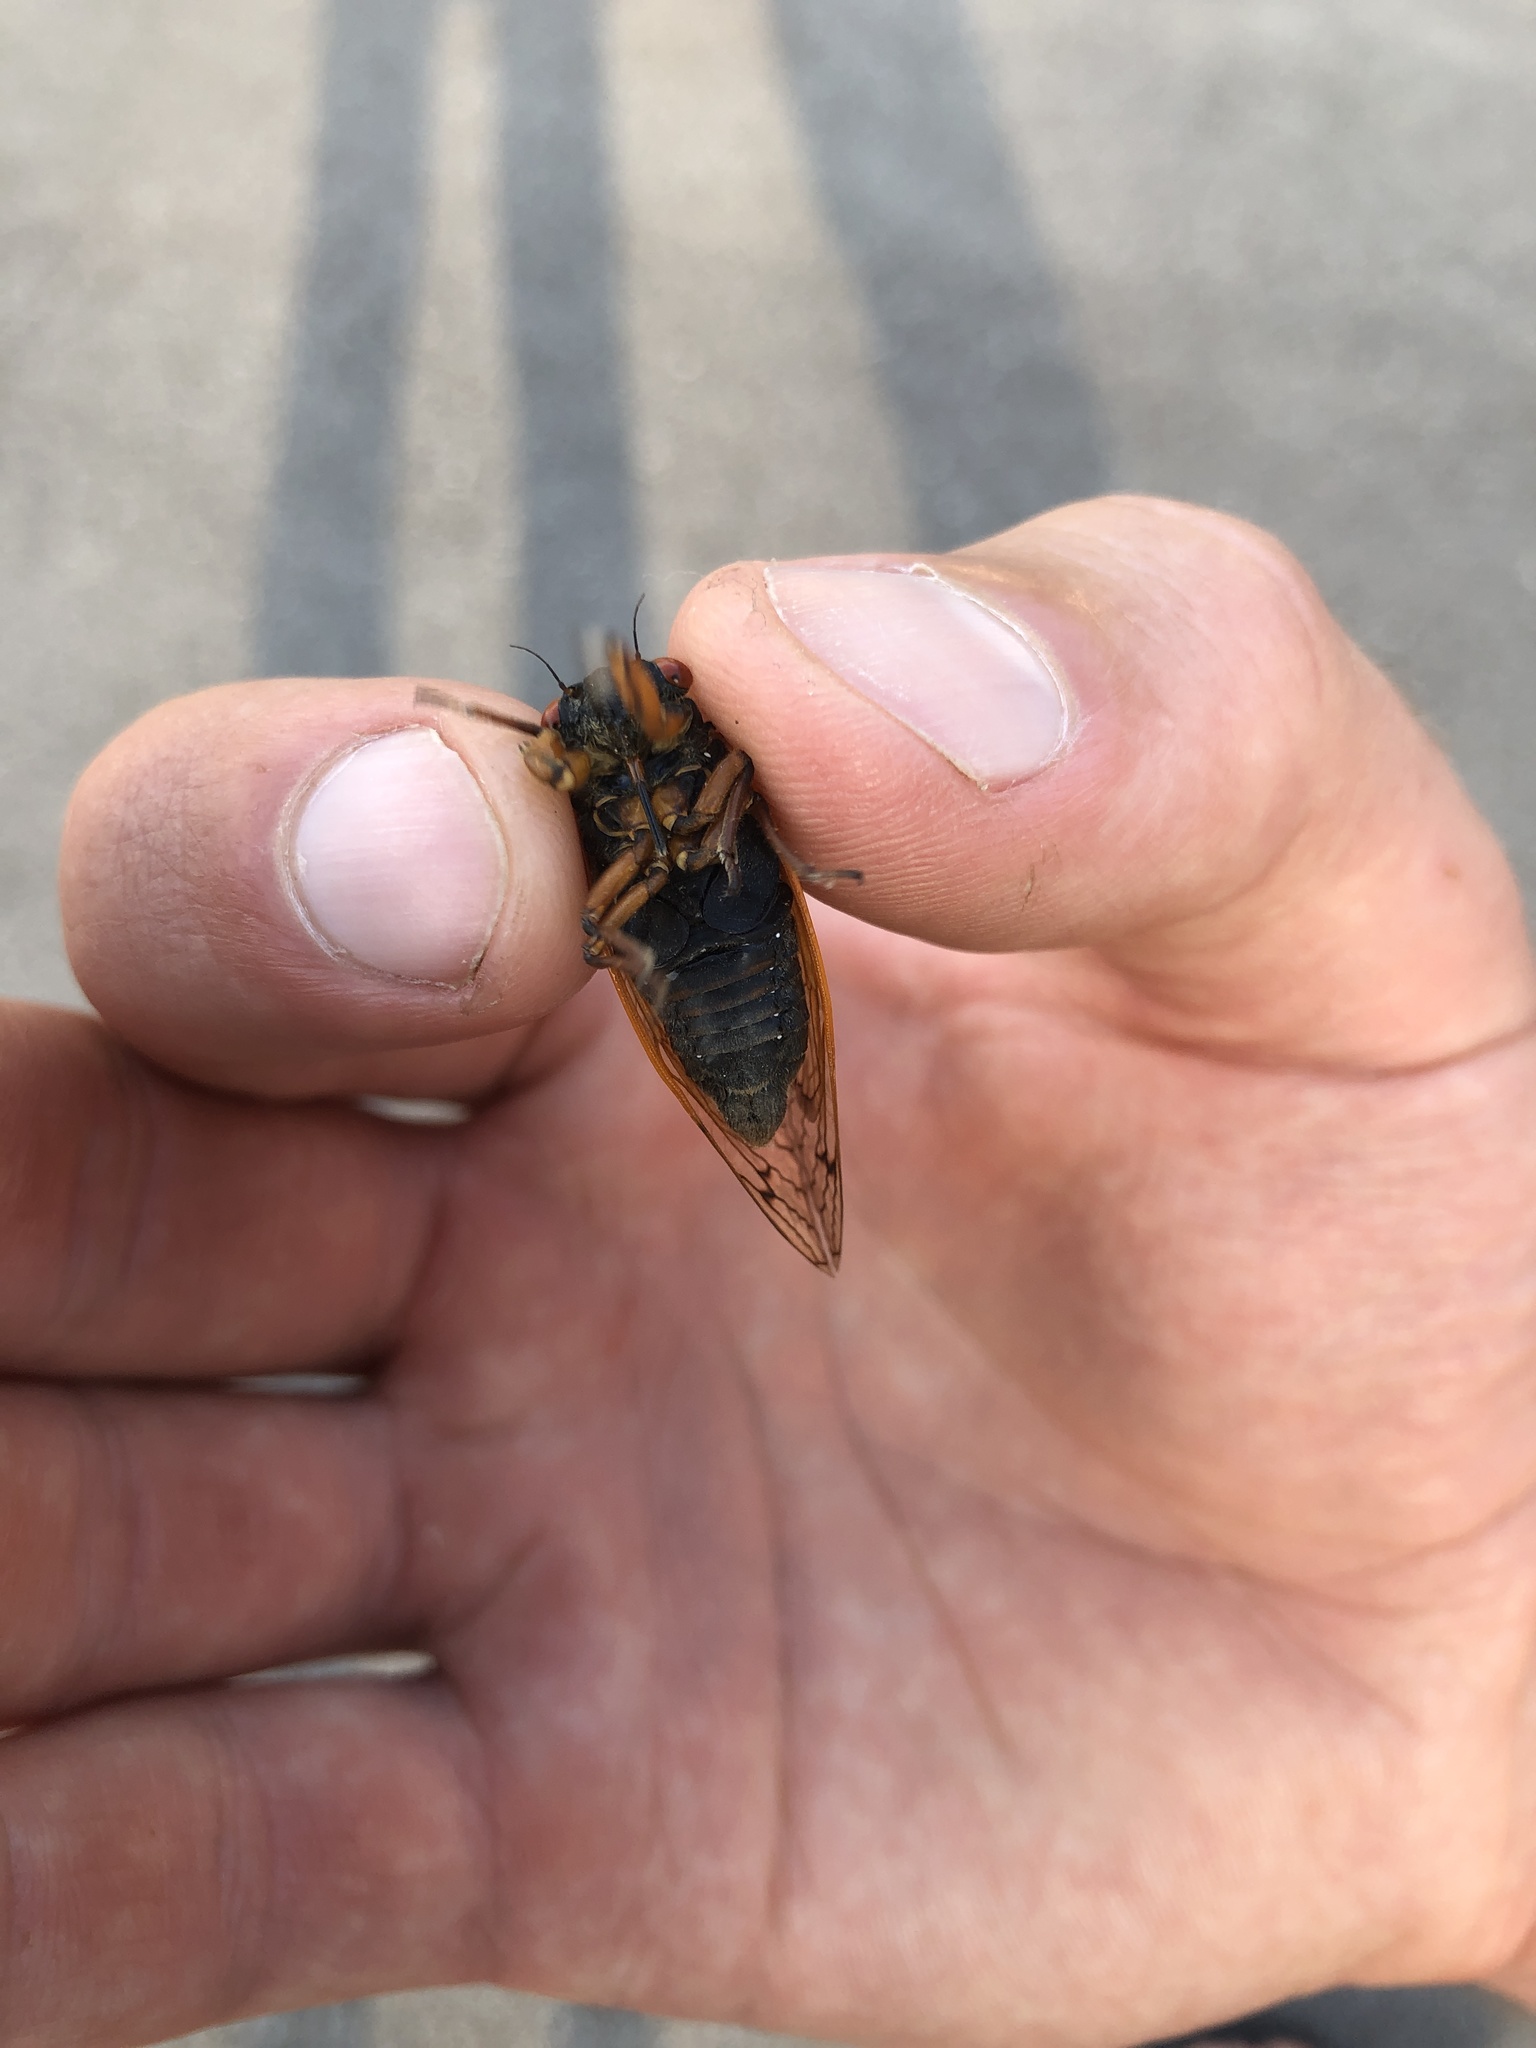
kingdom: Animalia
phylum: Arthropoda
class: Insecta
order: Hemiptera
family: Cicadidae
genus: Magicicada
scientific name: Magicicada septendecula
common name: Decula periodical cicada
